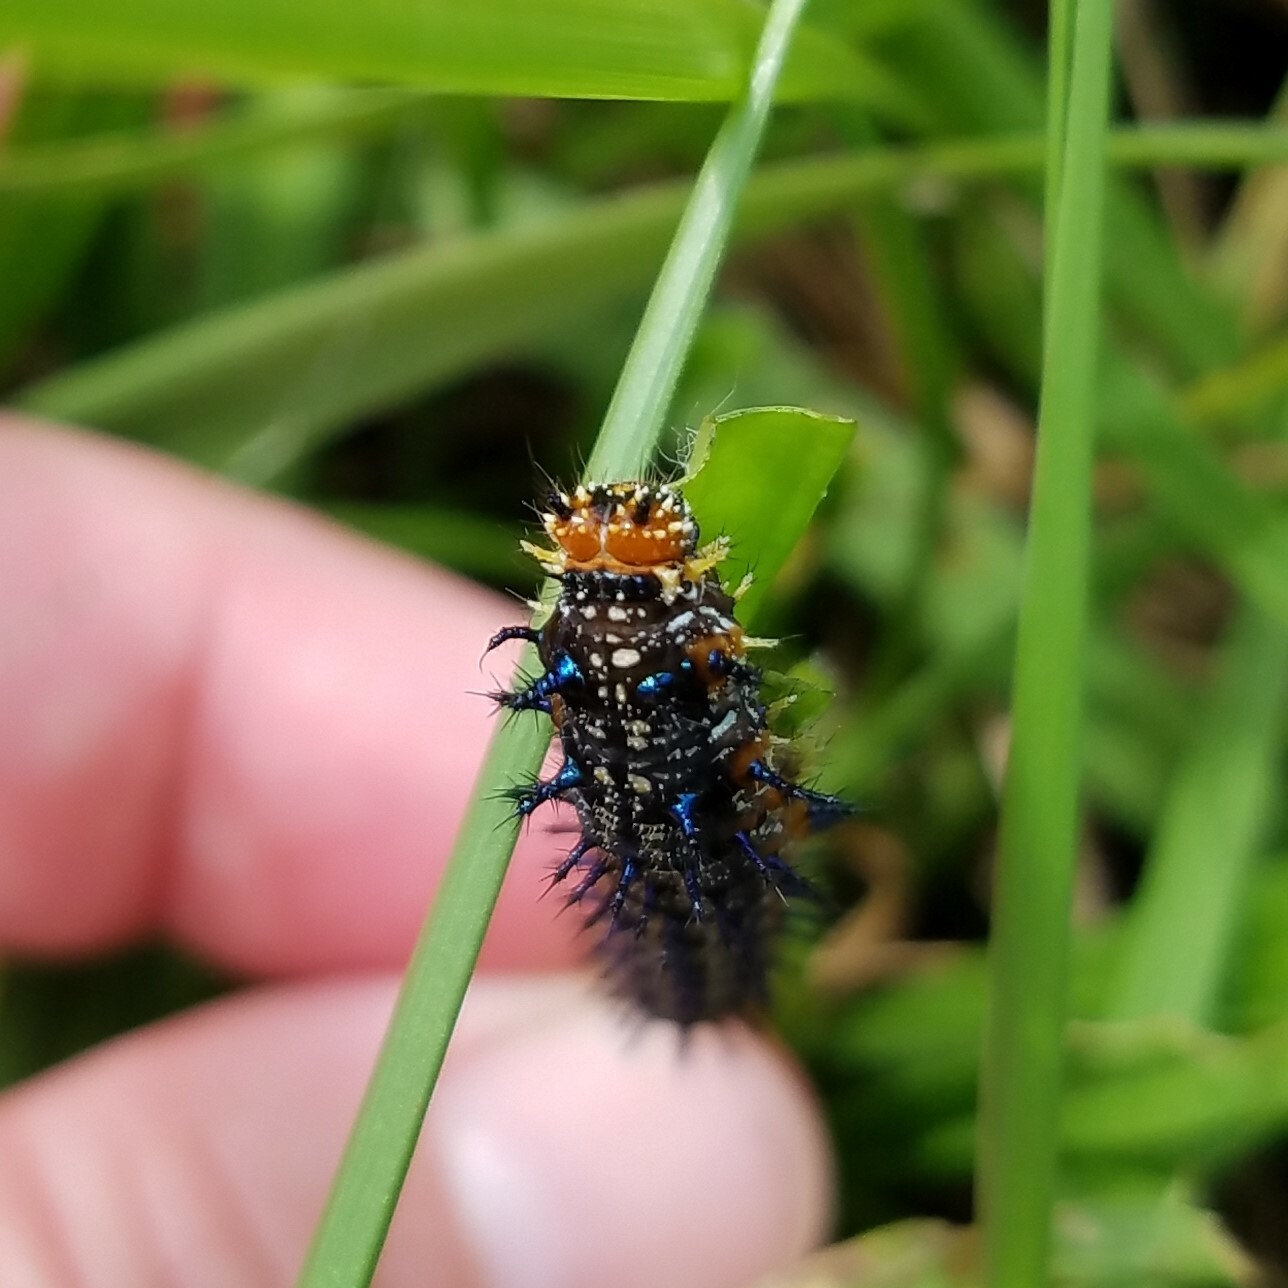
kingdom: Animalia
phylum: Arthropoda
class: Insecta
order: Lepidoptera
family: Nymphalidae
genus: Junonia
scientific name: Junonia coenia
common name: Common buckeye
